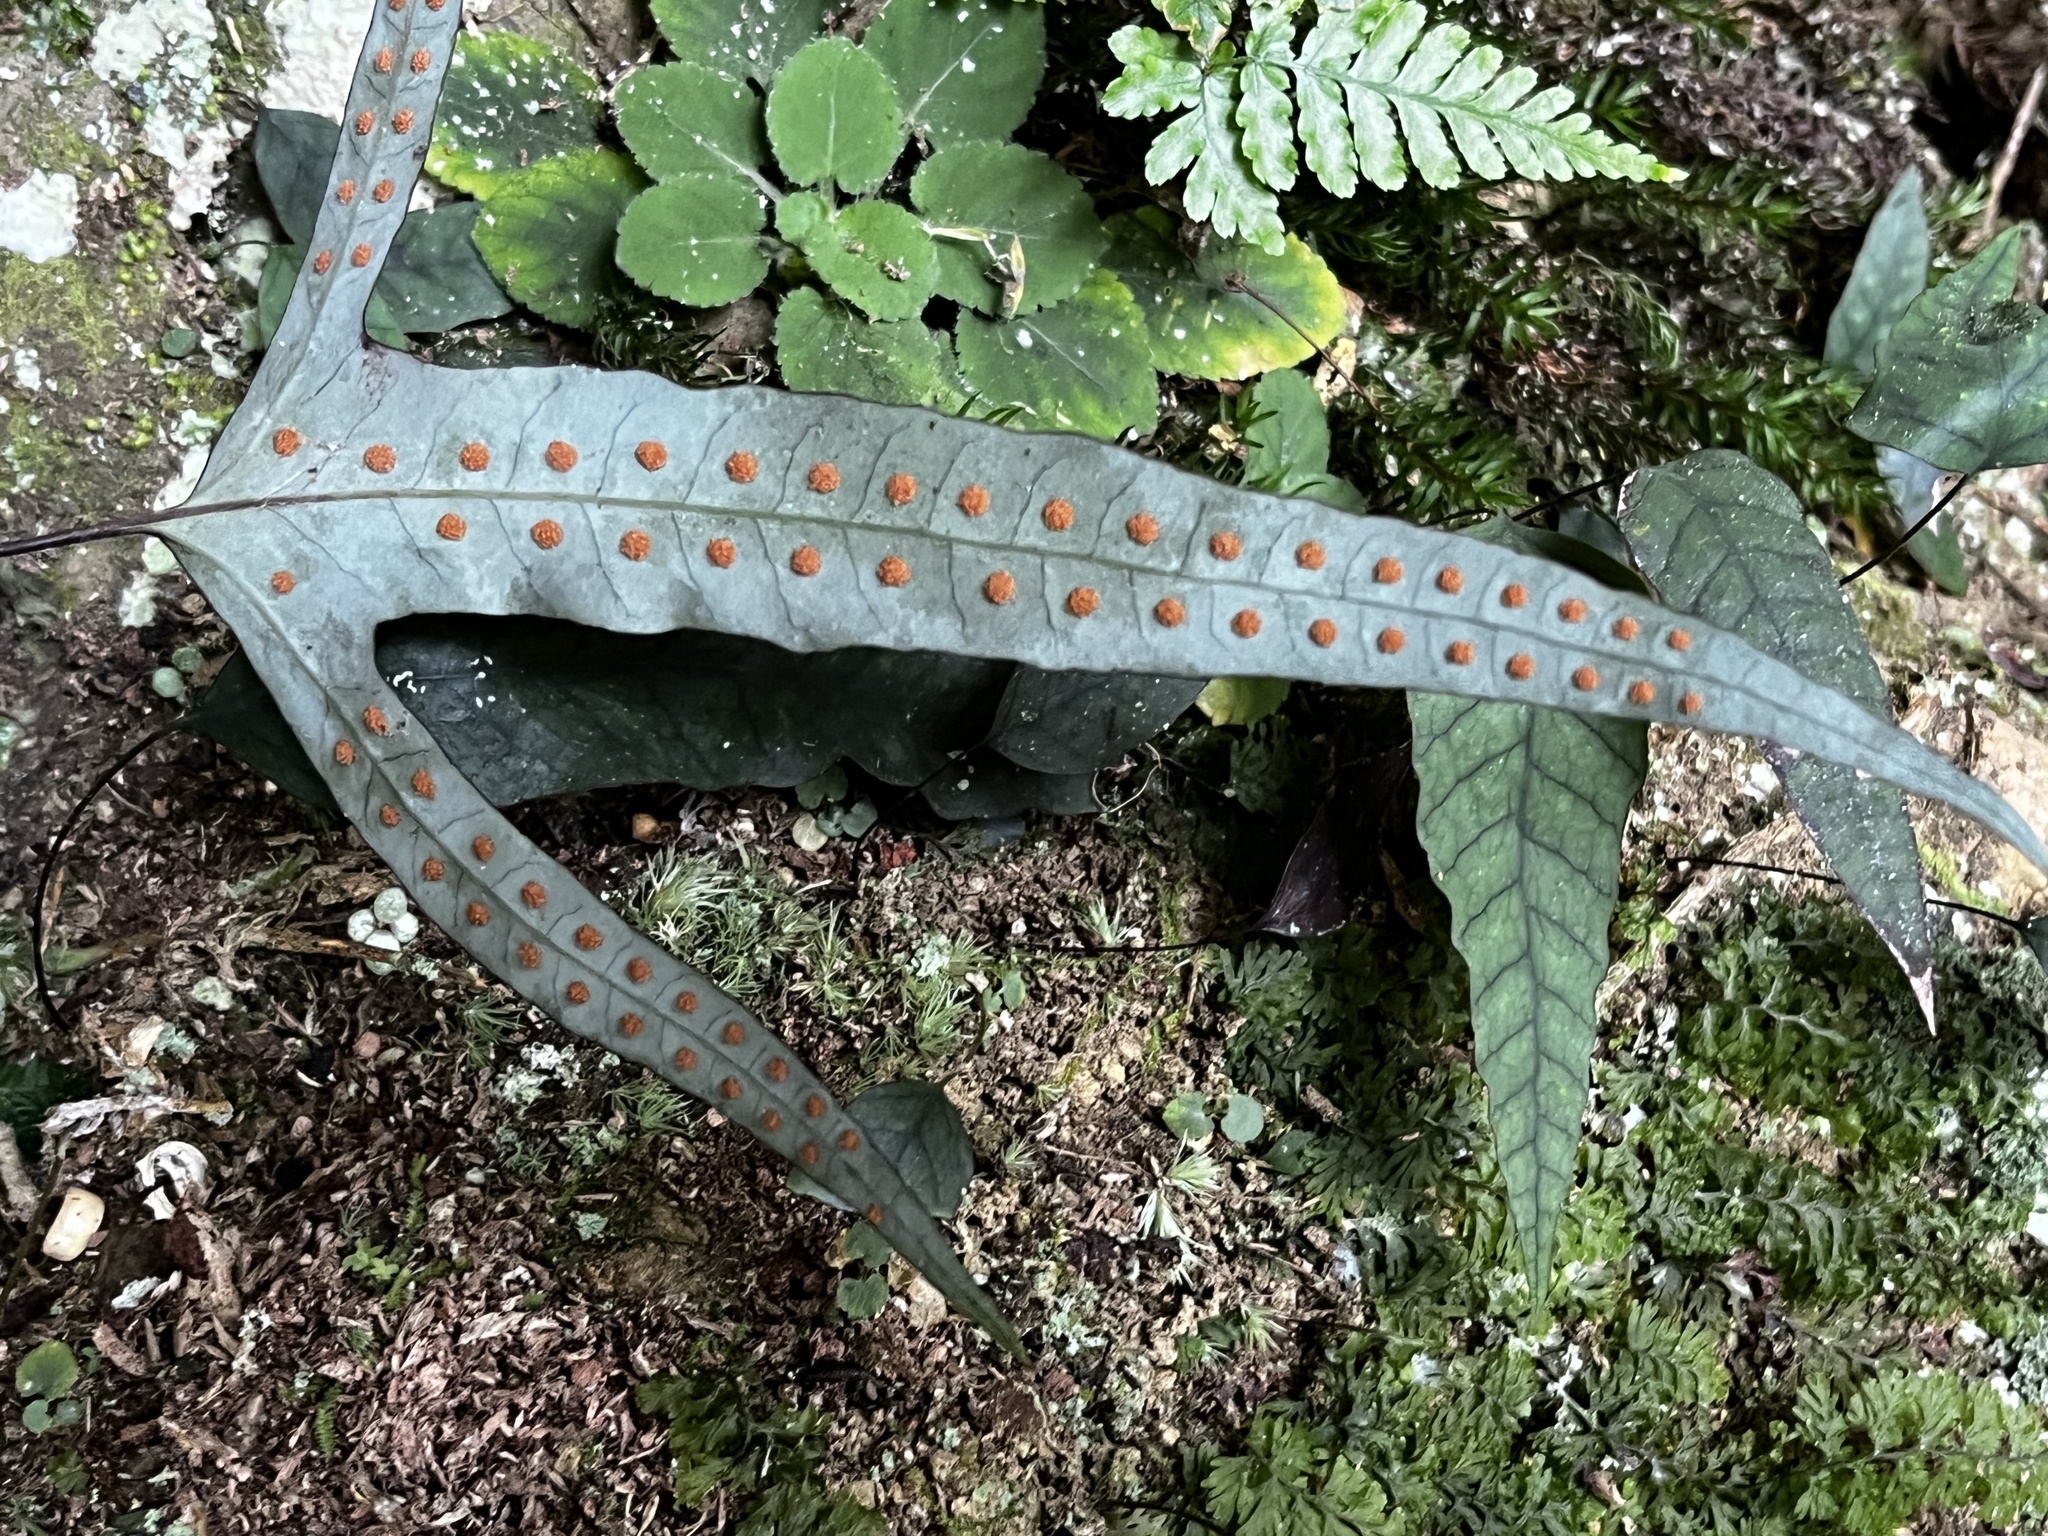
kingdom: Plantae
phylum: Tracheophyta
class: Polypodiopsida
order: Polypodiales
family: Polypodiaceae
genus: Selliguea
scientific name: Selliguea hastata
